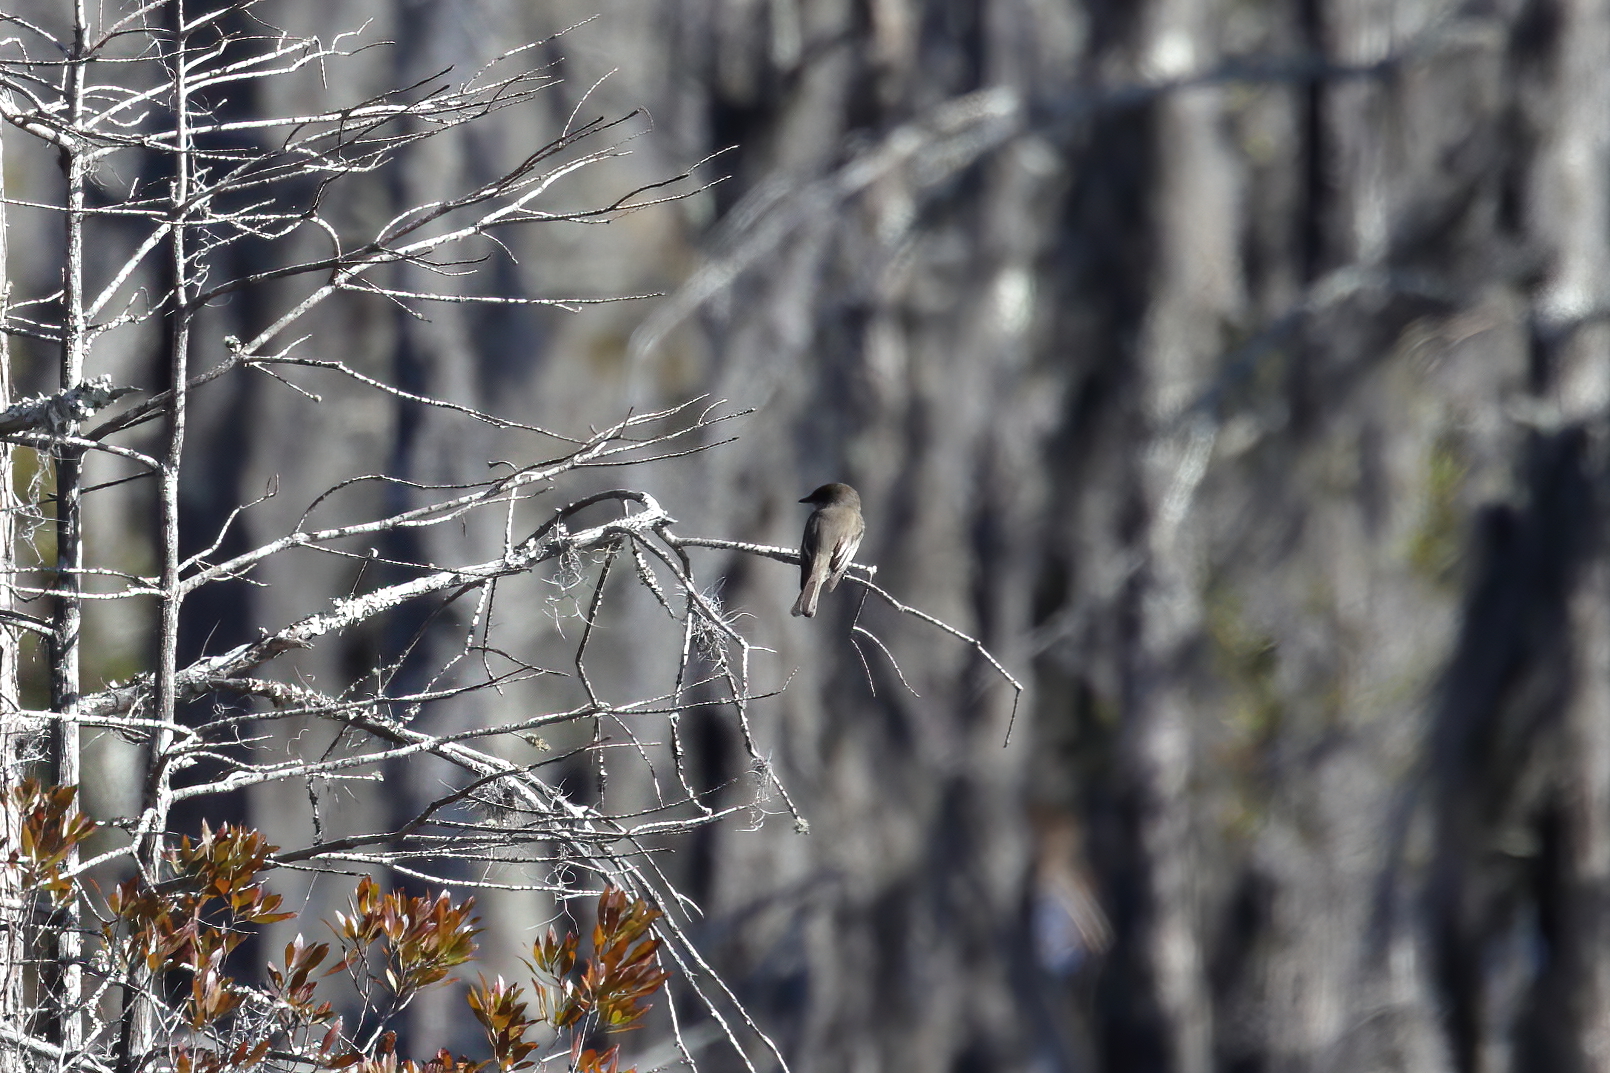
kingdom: Animalia
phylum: Chordata
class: Aves
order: Passeriformes
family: Tyrannidae
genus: Sayornis
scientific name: Sayornis phoebe
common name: Eastern phoebe
